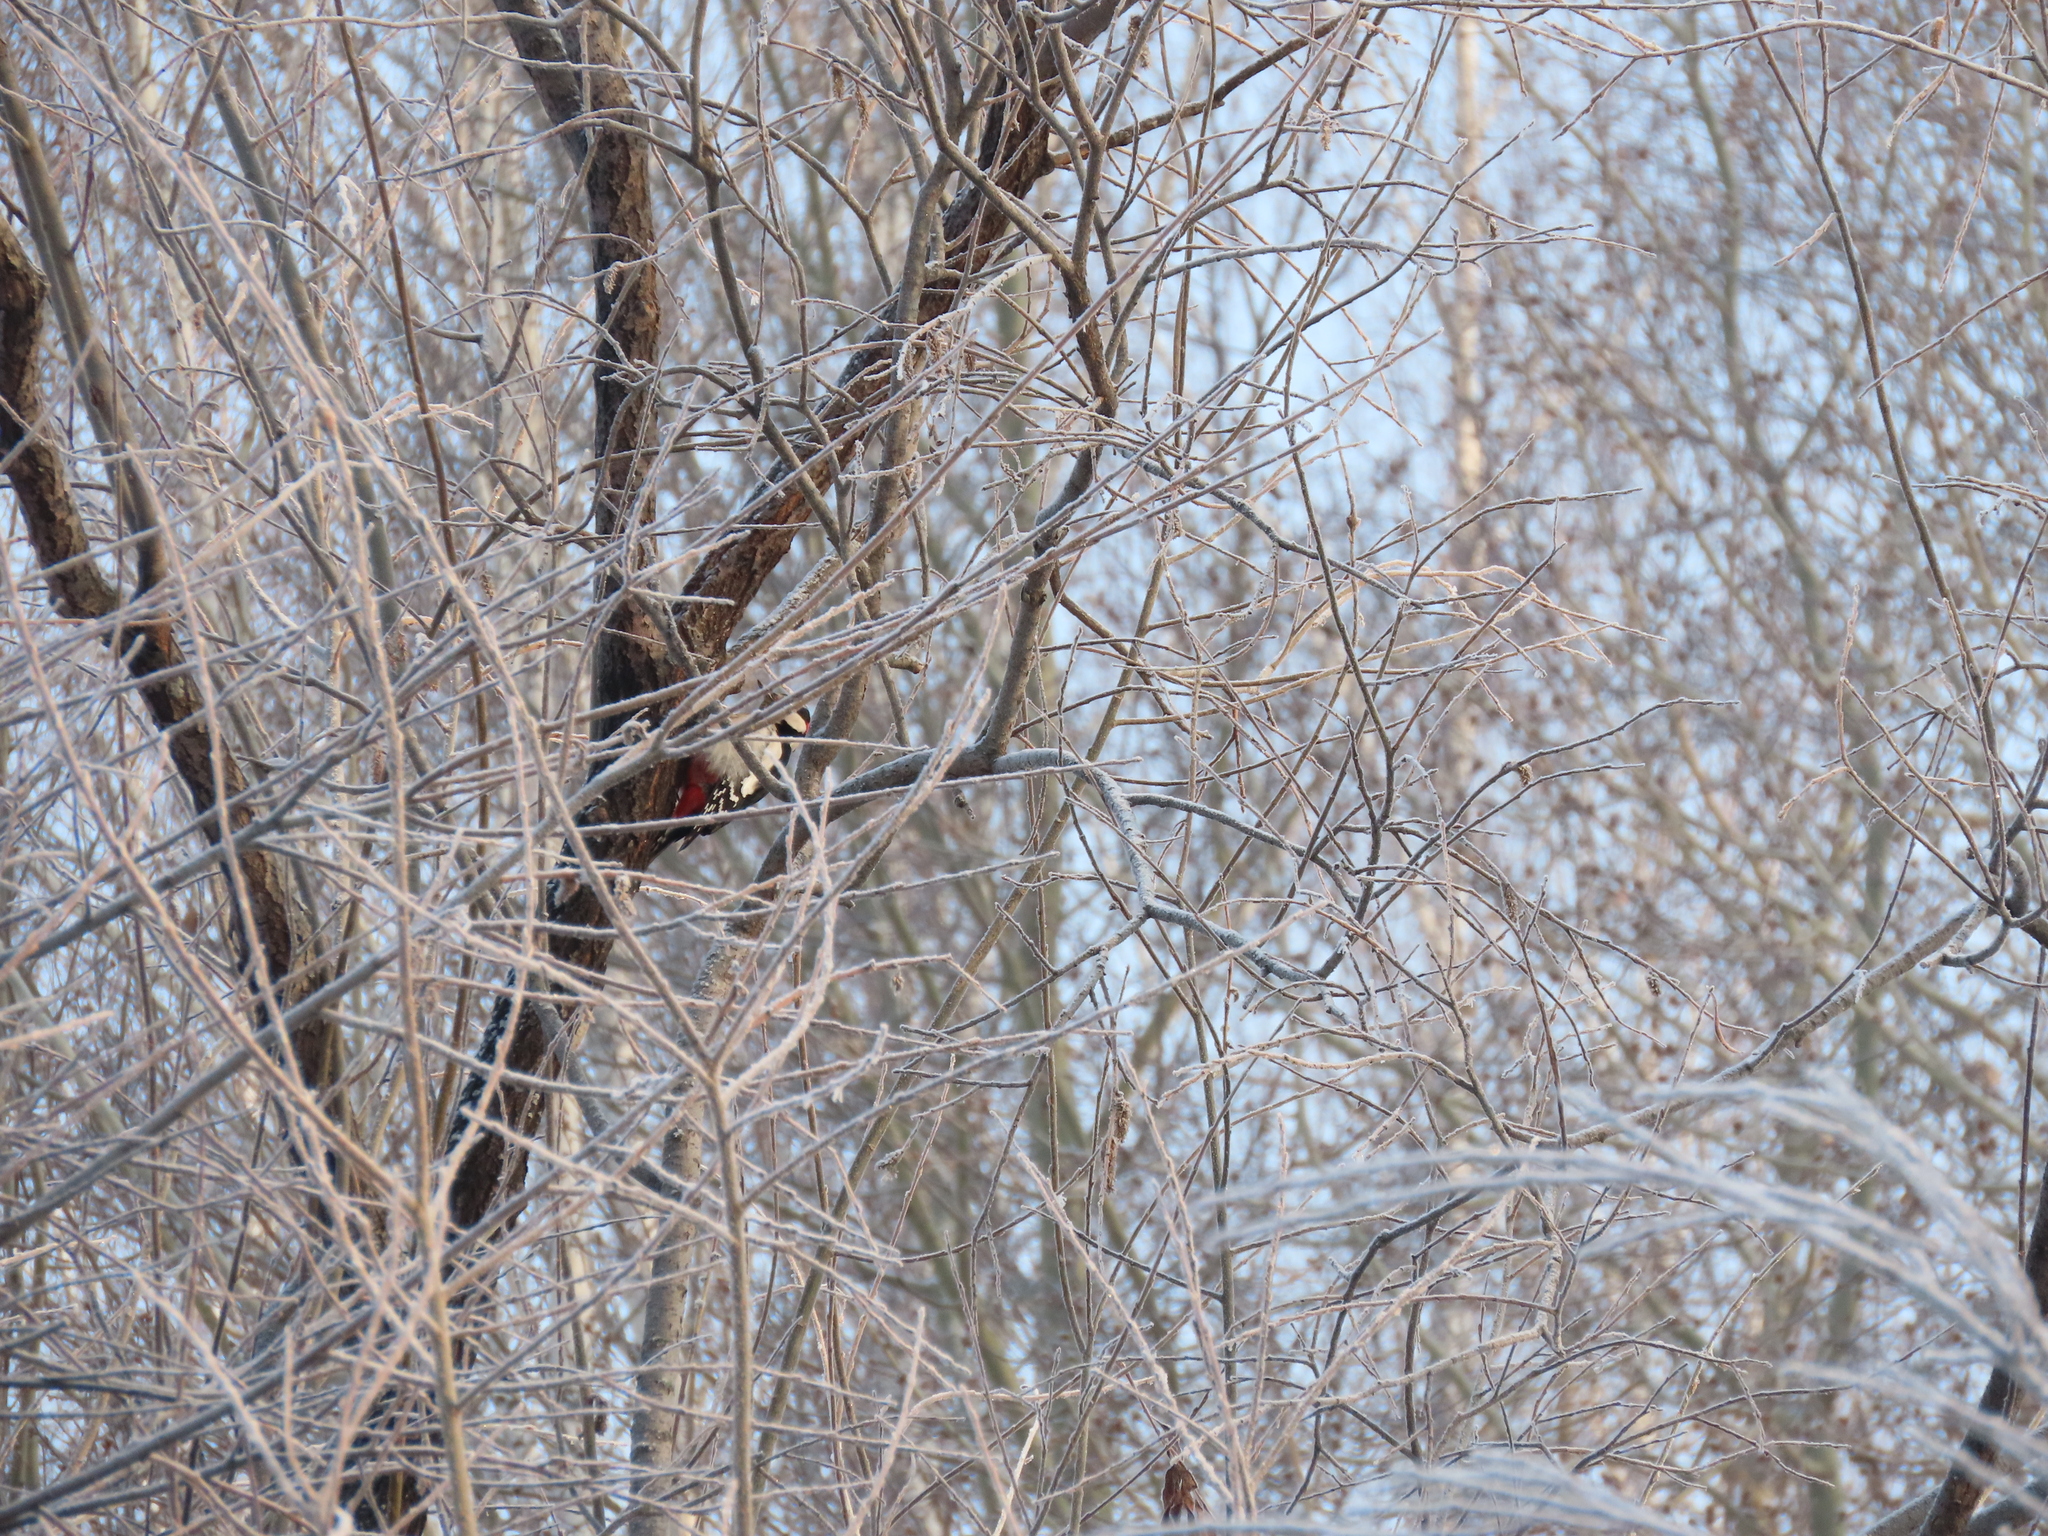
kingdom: Animalia
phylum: Chordata
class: Aves
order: Piciformes
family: Picidae
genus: Dendrocopos
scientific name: Dendrocopos major
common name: Great spotted woodpecker
